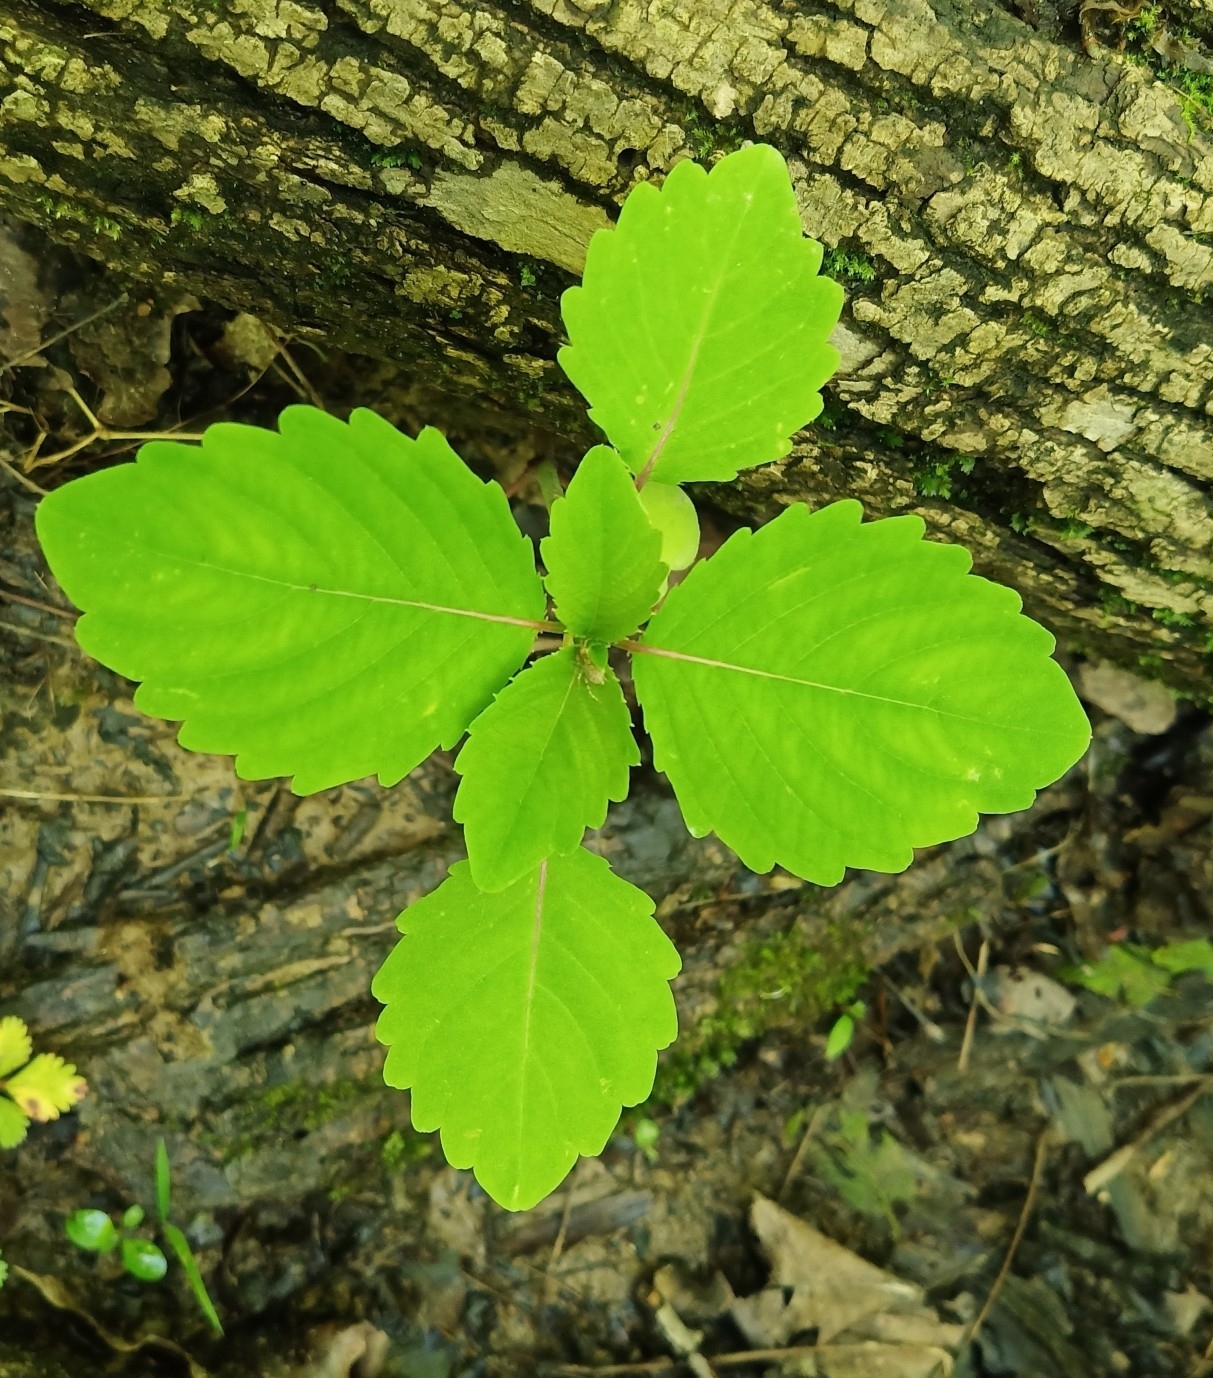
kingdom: Plantae
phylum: Tracheophyta
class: Magnoliopsida
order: Ericales
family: Balsaminaceae
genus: Impatiens
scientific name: Impatiens
